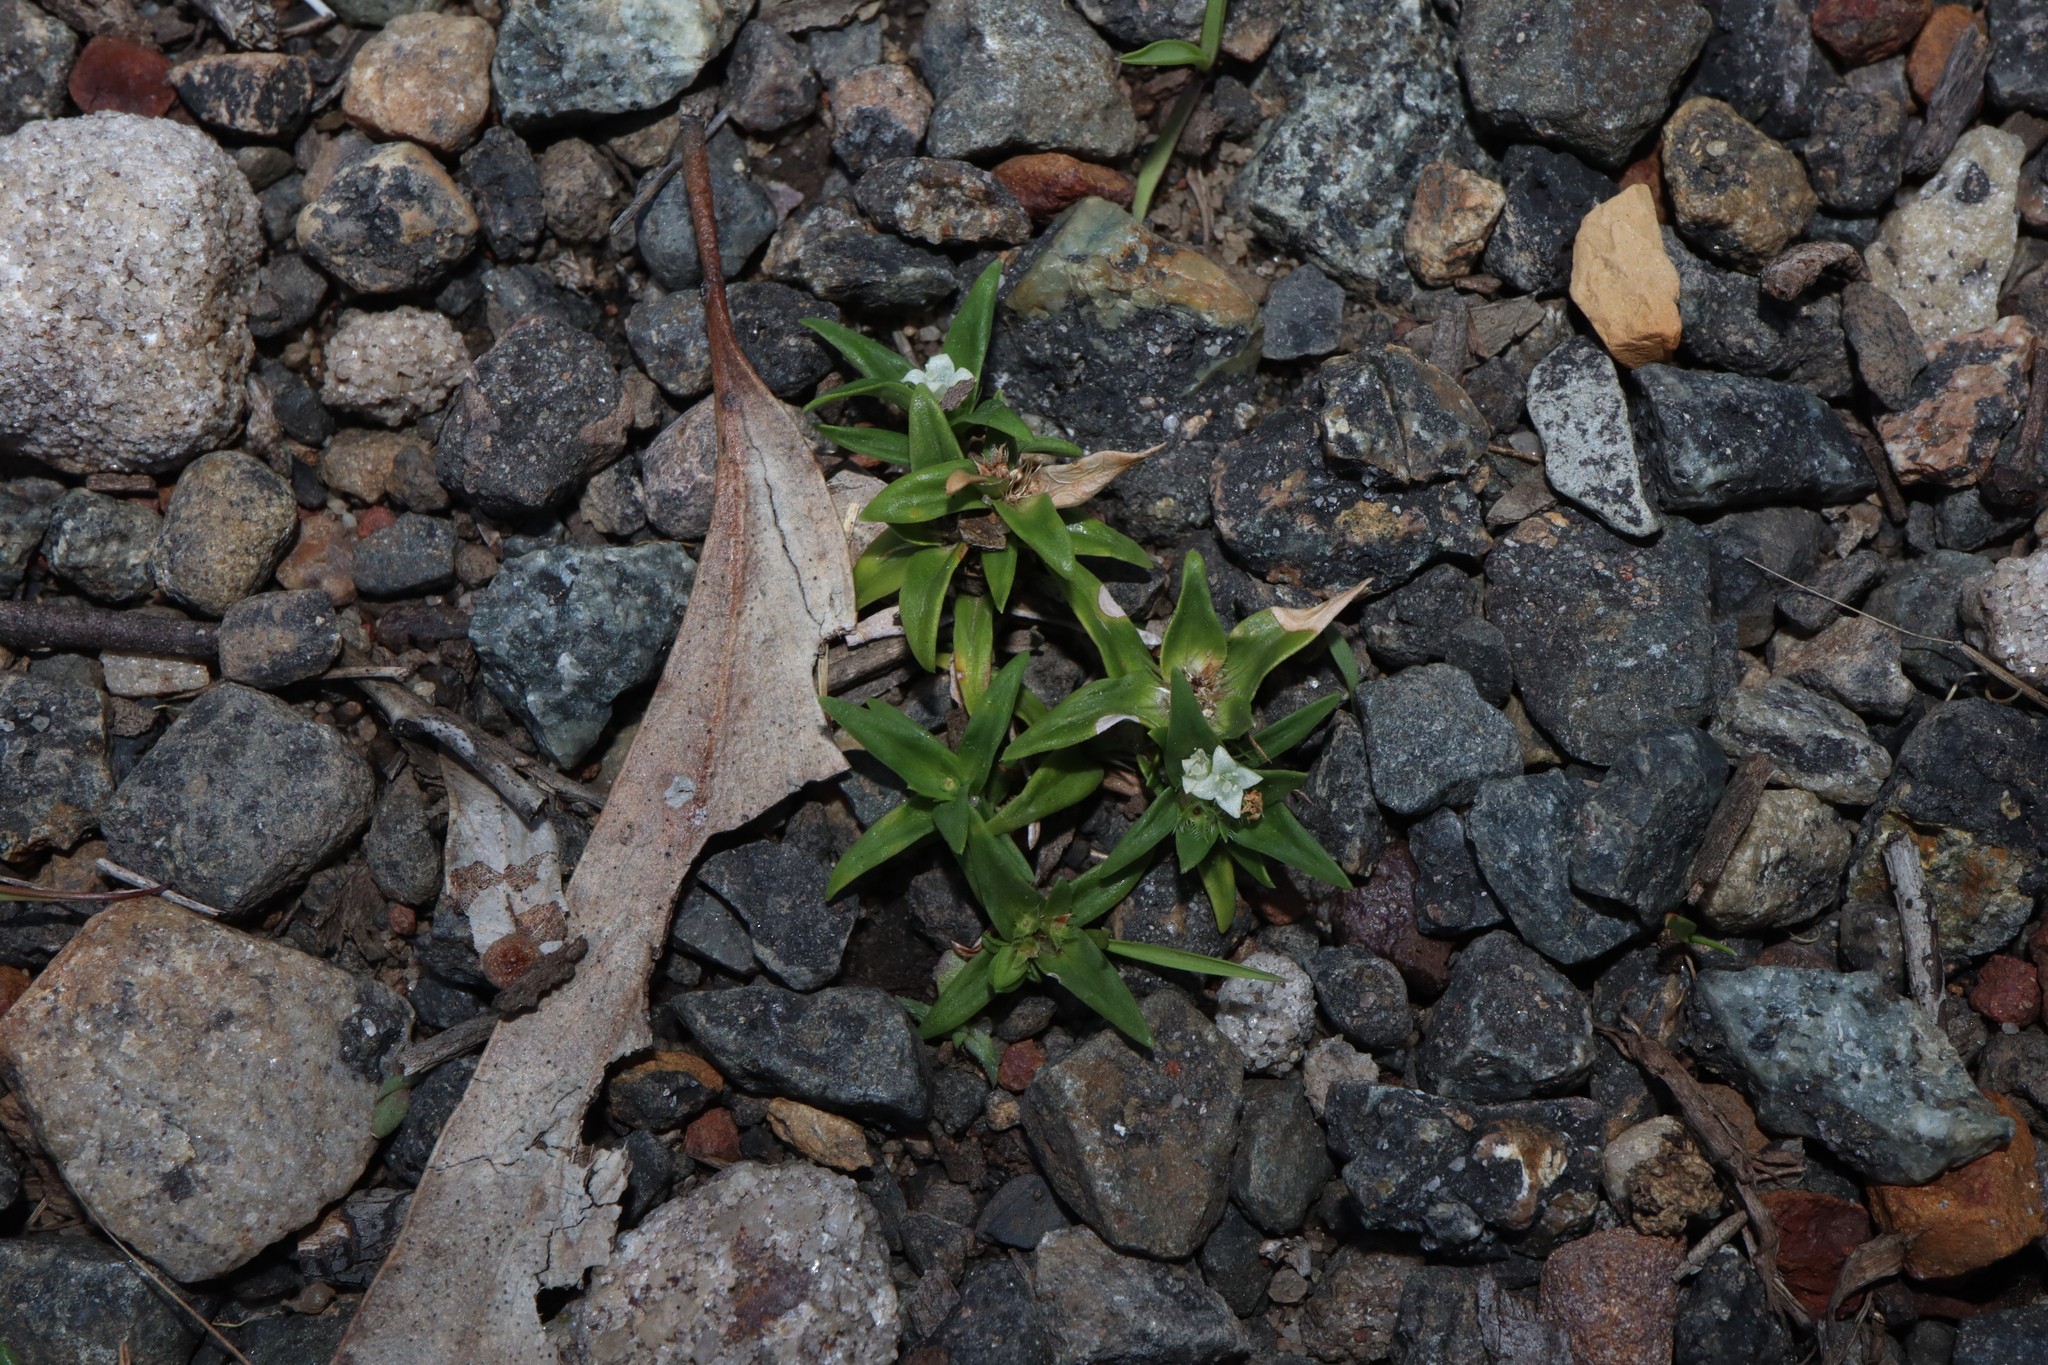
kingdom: Plantae
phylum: Tracheophyta
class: Magnoliopsida
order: Gentianales
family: Rubiaceae
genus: Richardia
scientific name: Richardia stellaris
